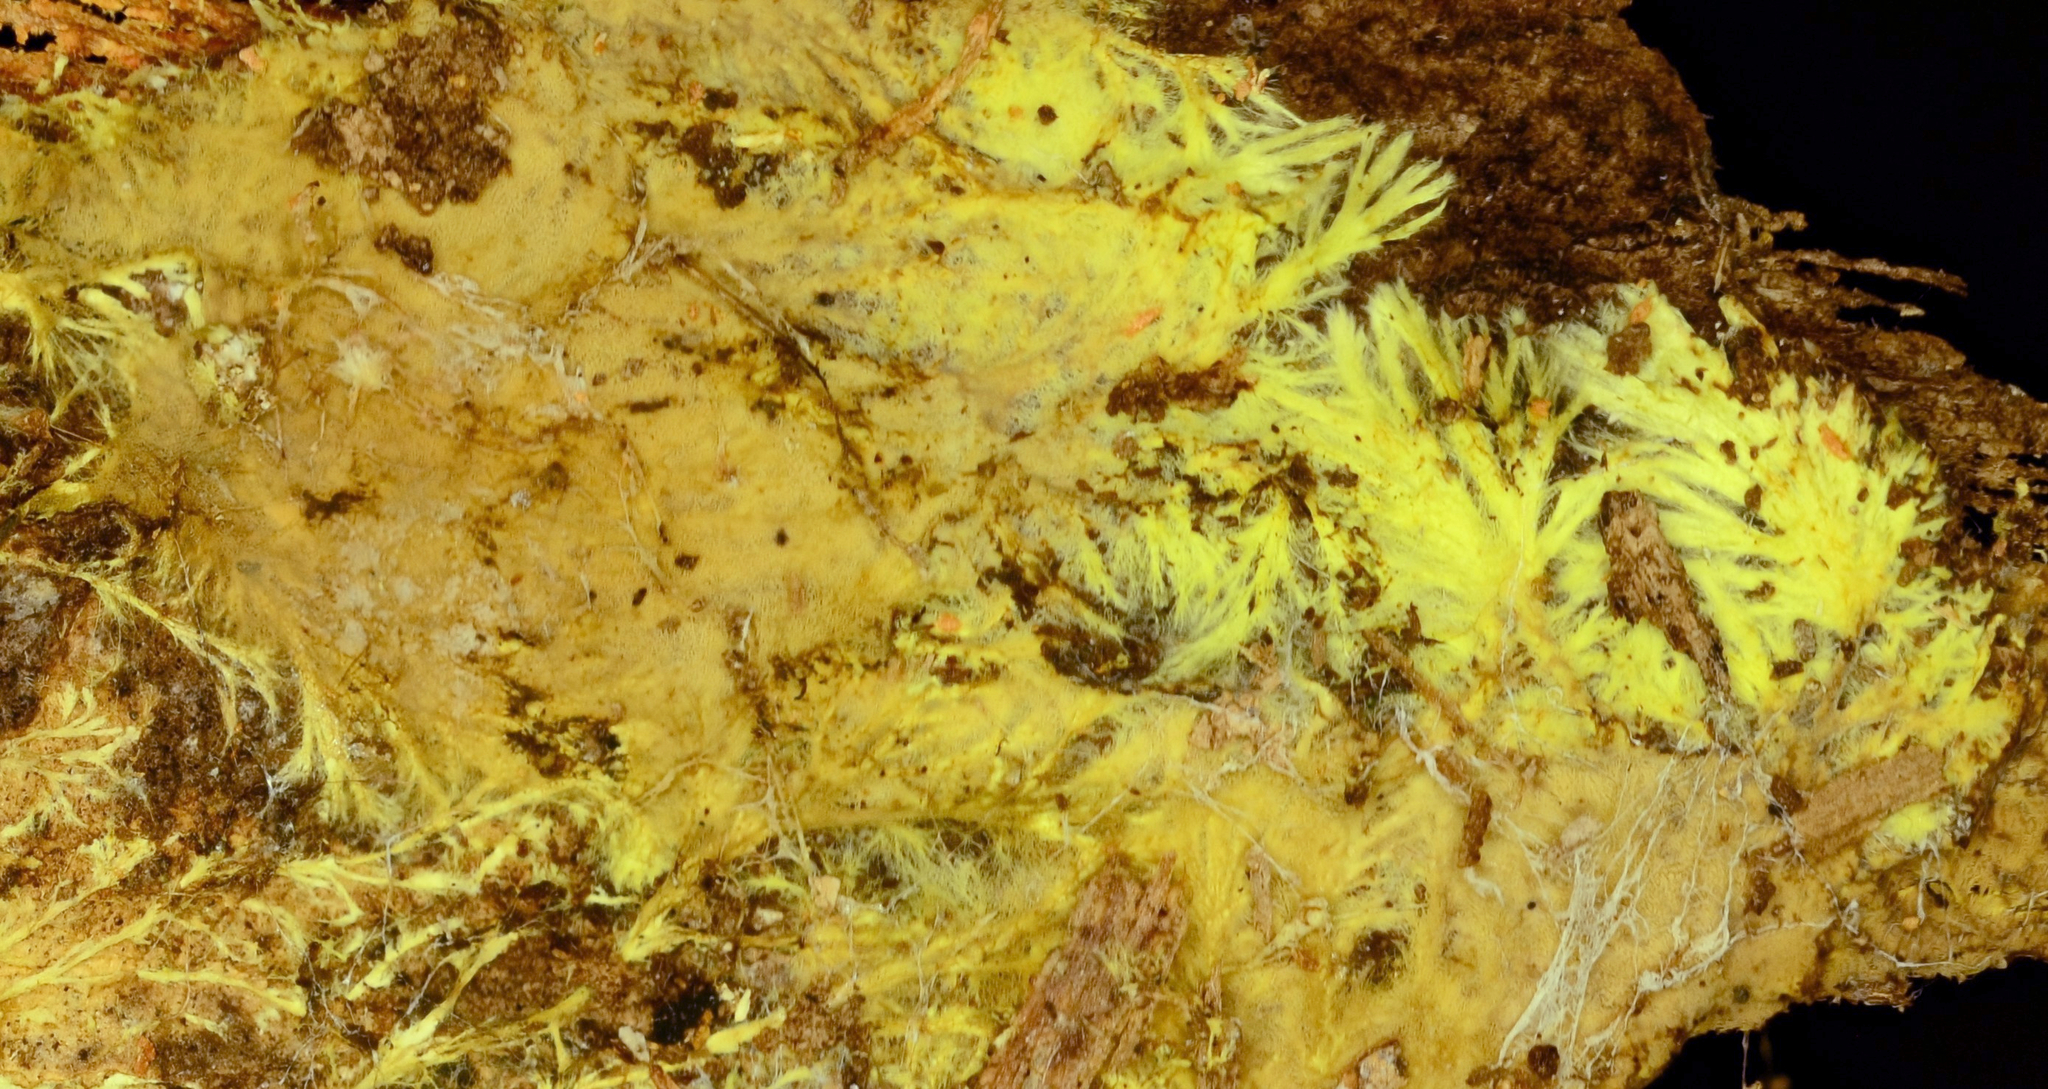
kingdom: Fungi
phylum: Basidiomycota
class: Agaricomycetes
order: Russulales
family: Xenasmataceae
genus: Xenasmatella
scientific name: Xenasmatella vaga
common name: Yellow cobweb
